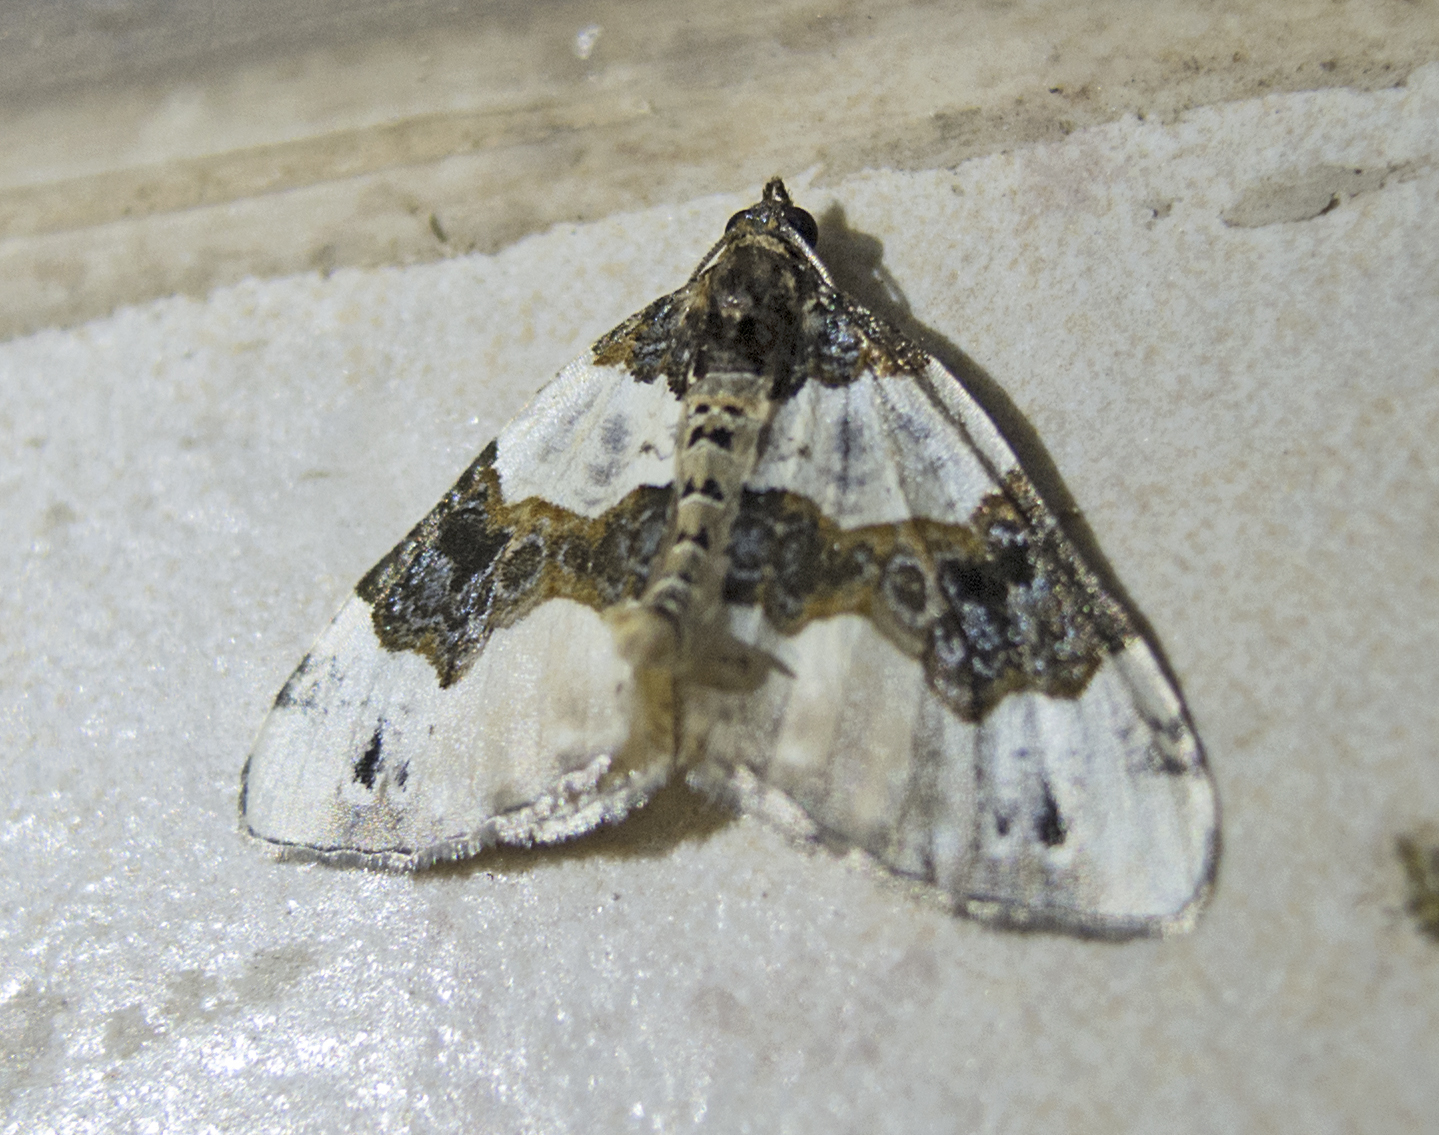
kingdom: Animalia
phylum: Arthropoda
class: Insecta
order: Lepidoptera
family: Geometridae
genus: Cosmorhoe
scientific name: Cosmorhoe ocellata
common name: Purple bar
